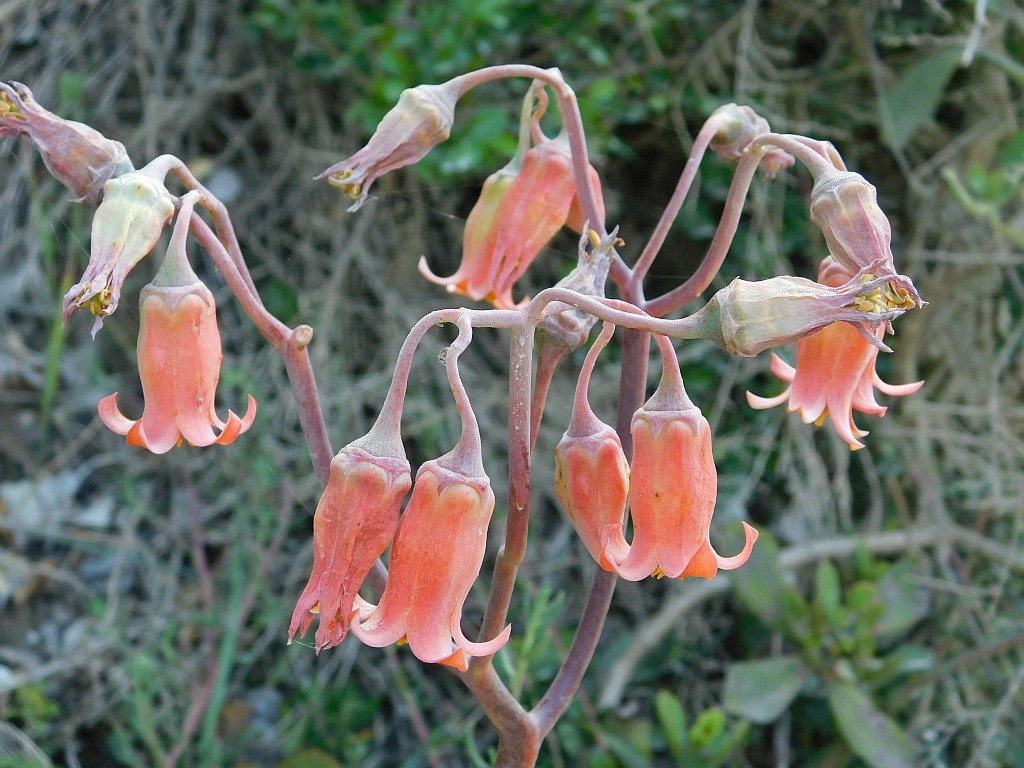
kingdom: Plantae
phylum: Tracheophyta
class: Magnoliopsida
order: Saxifragales
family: Crassulaceae
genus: Cotyledon
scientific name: Cotyledon orbiculata
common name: Pig's ear
